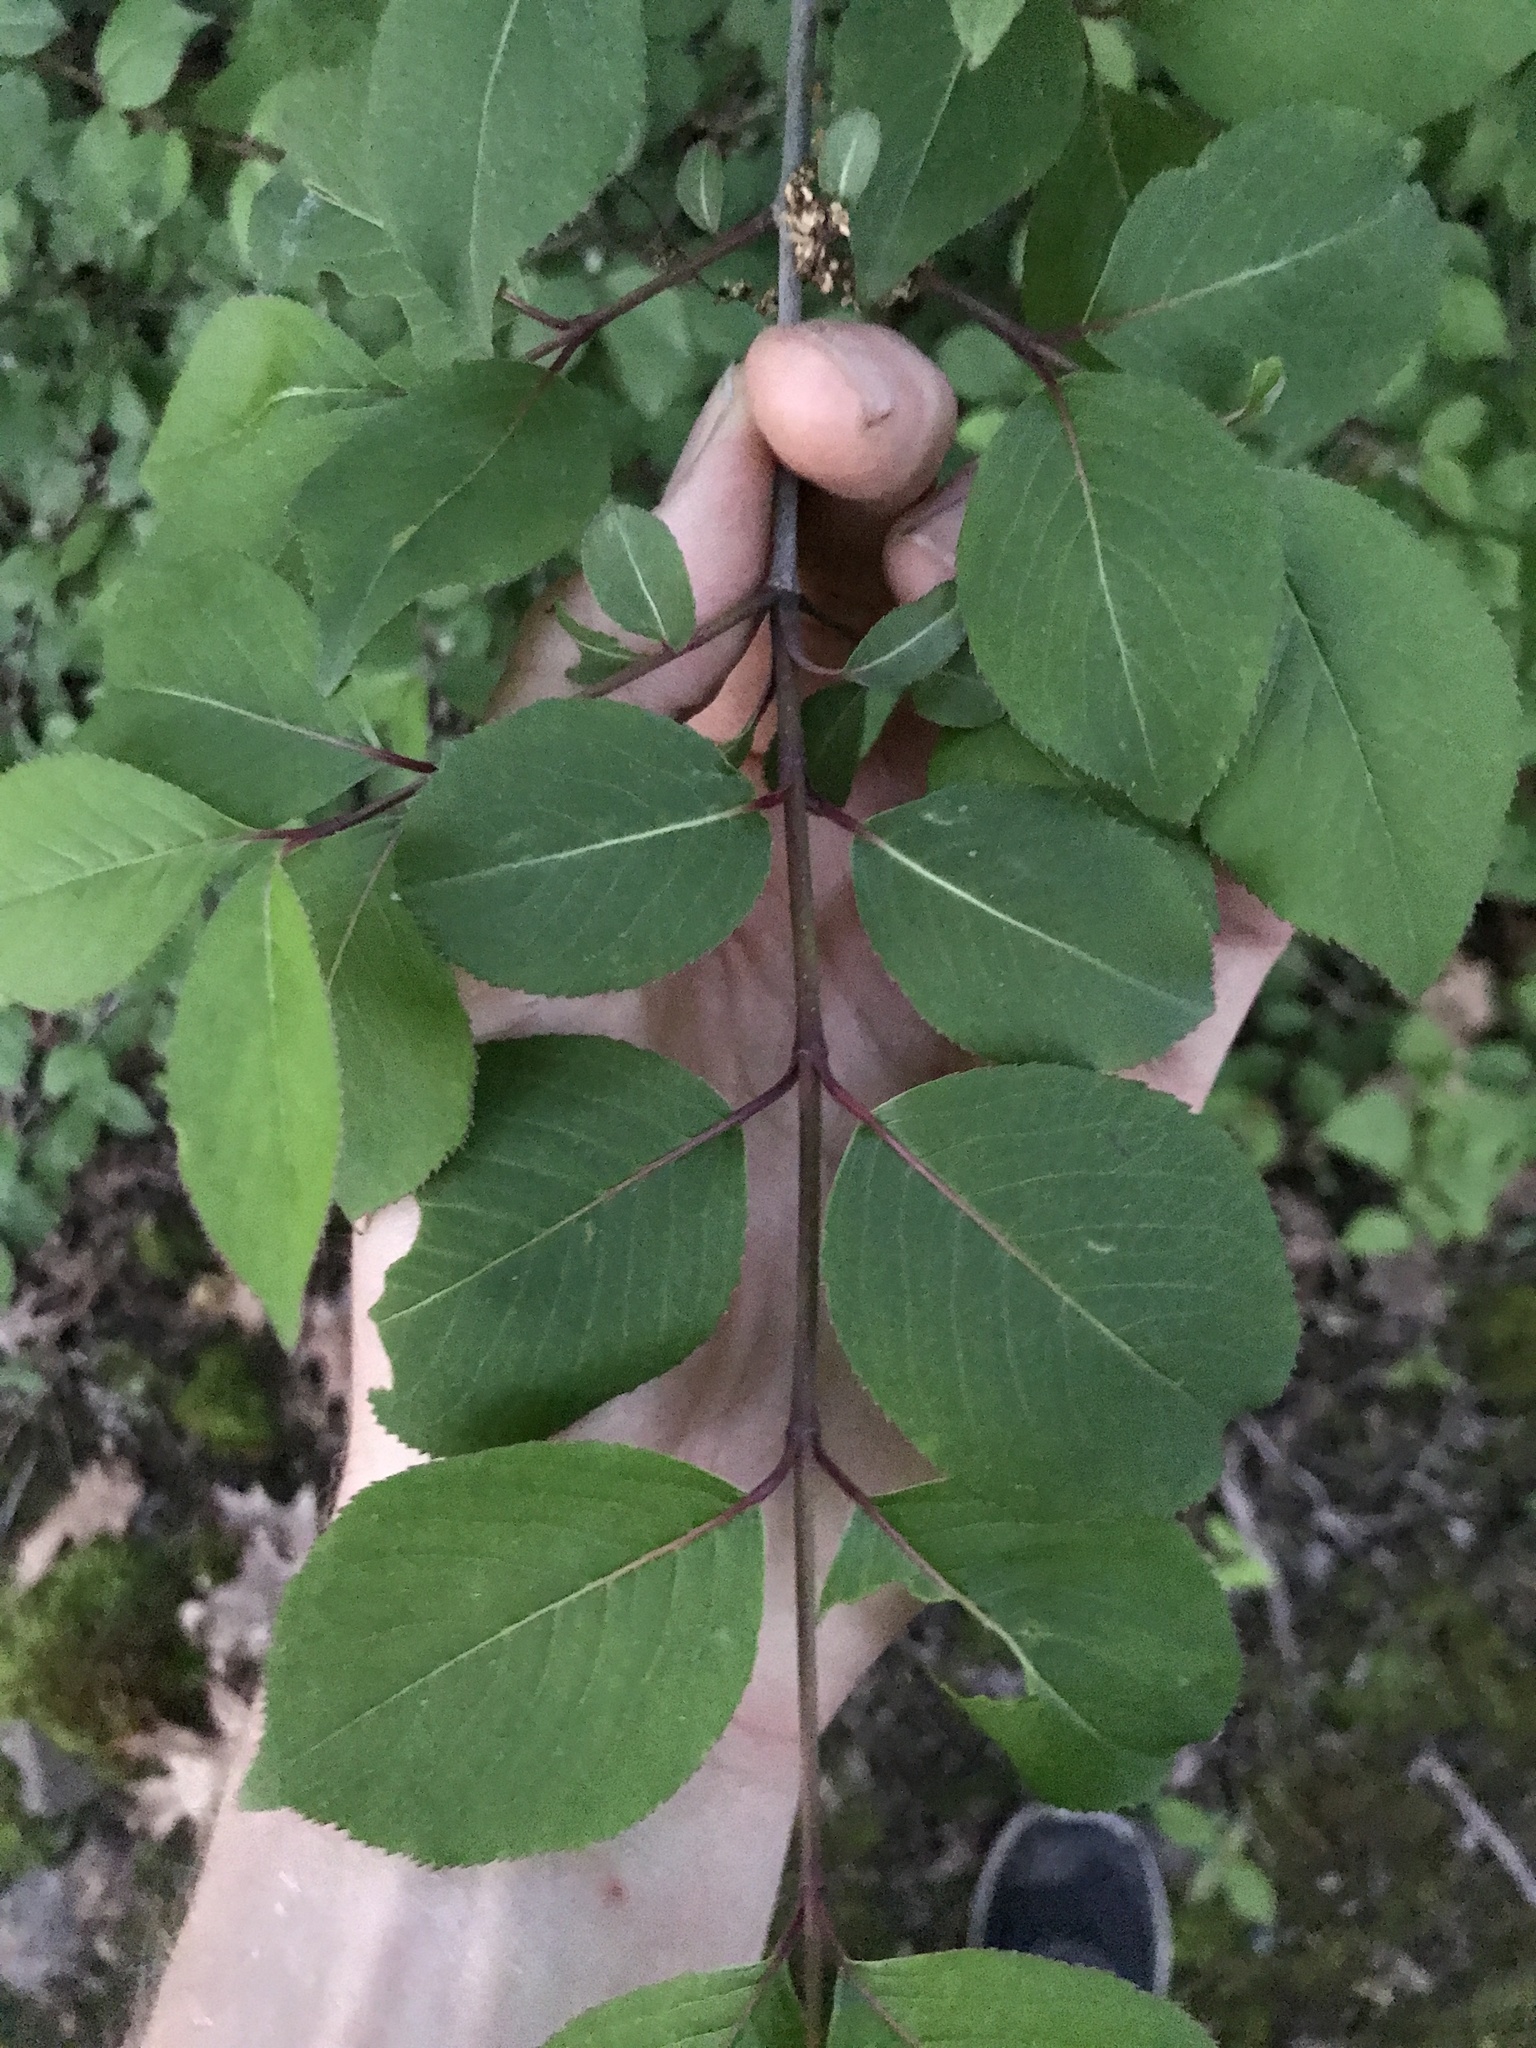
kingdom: Plantae
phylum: Tracheophyta
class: Magnoliopsida
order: Dipsacales
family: Viburnaceae
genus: Viburnum
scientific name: Viburnum prunifolium
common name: Black haw
